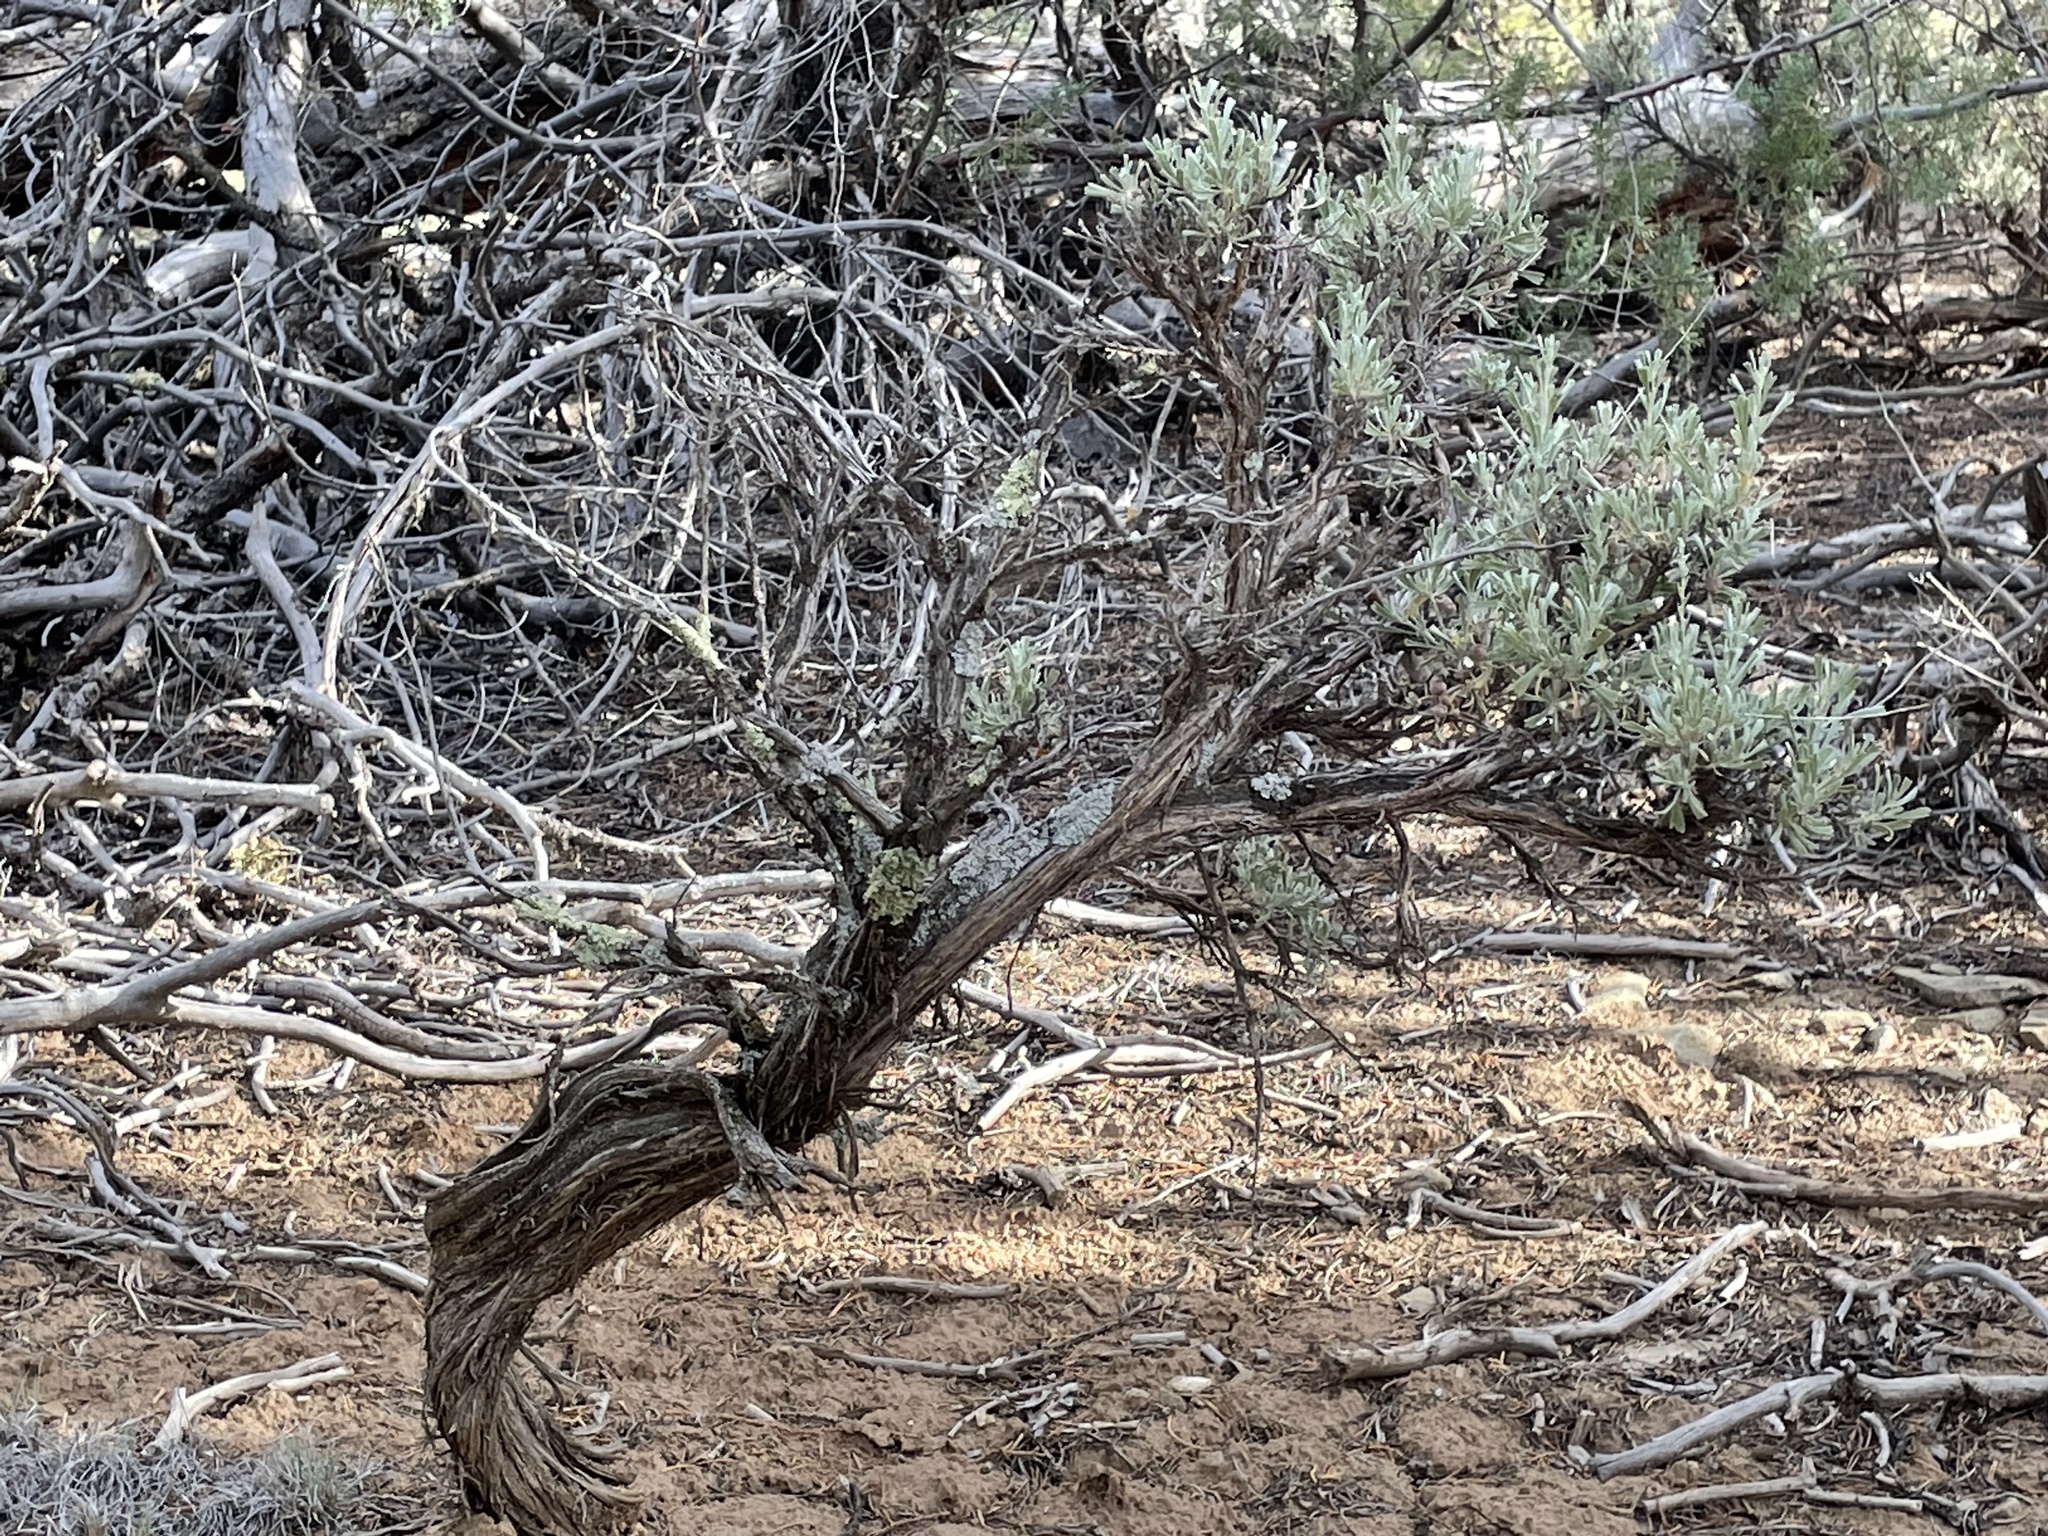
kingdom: Plantae
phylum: Tracheophyta
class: Magnoliopsida
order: Asterales
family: Asteraceae
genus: Artemisia
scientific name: Artemisia tridentata
